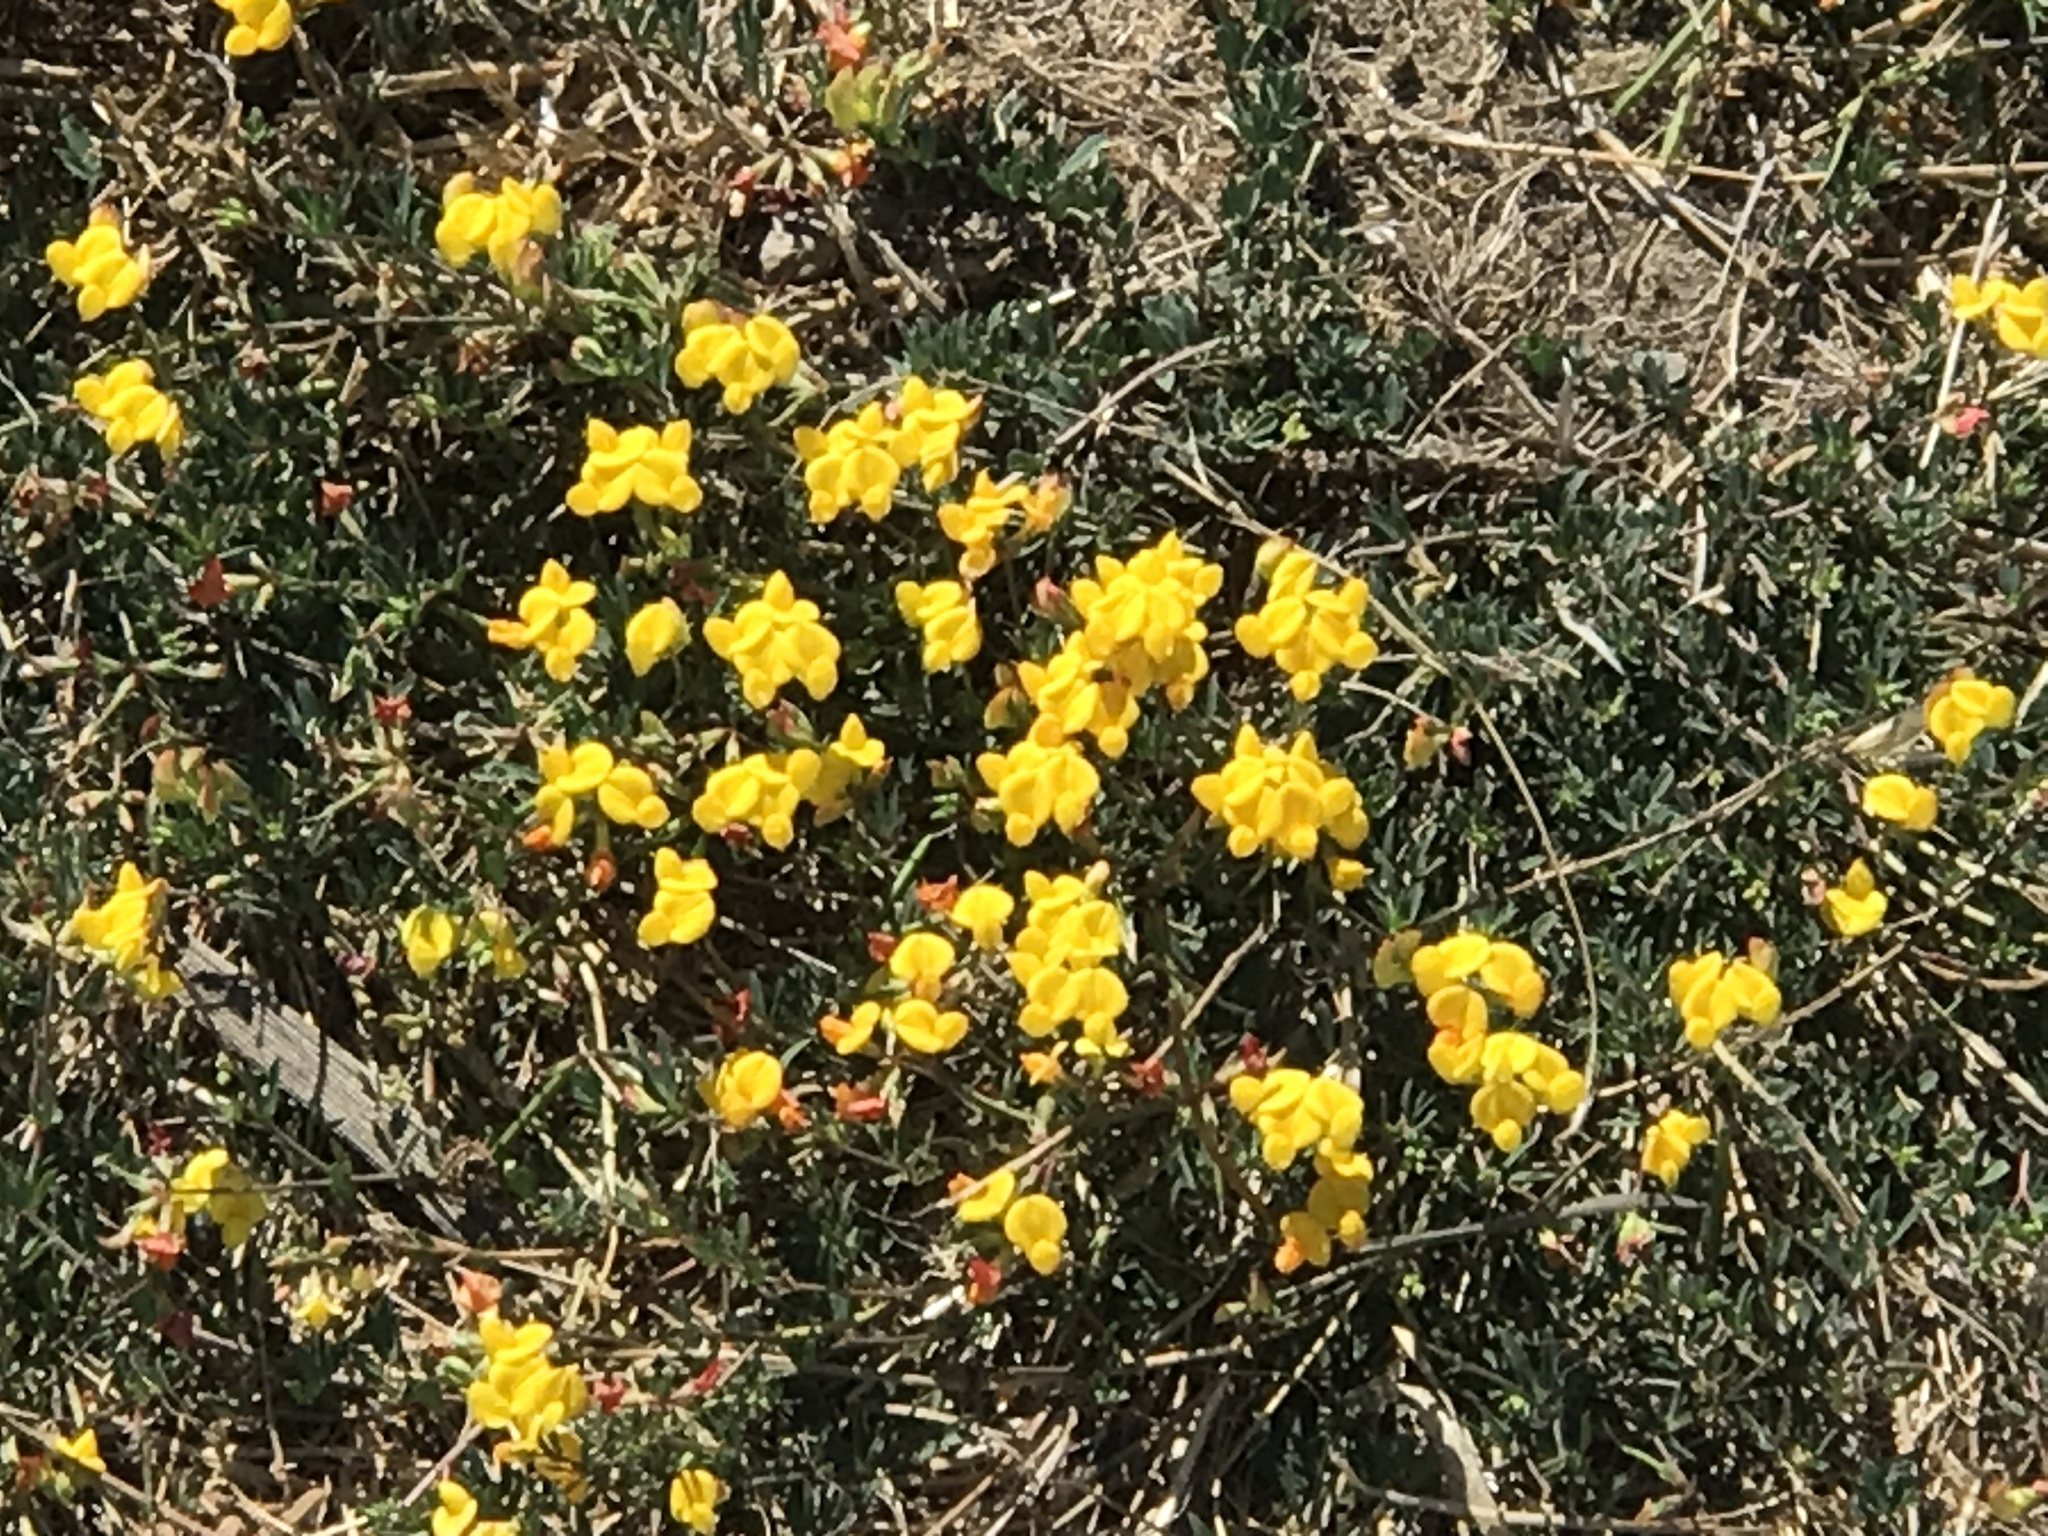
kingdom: Plantae
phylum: Tracheophyta
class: Magnoliopsida
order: Fabales
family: Fabaceae
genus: Lotus
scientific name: Lotus corniculatus
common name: Common bird's-foot-trefoil
